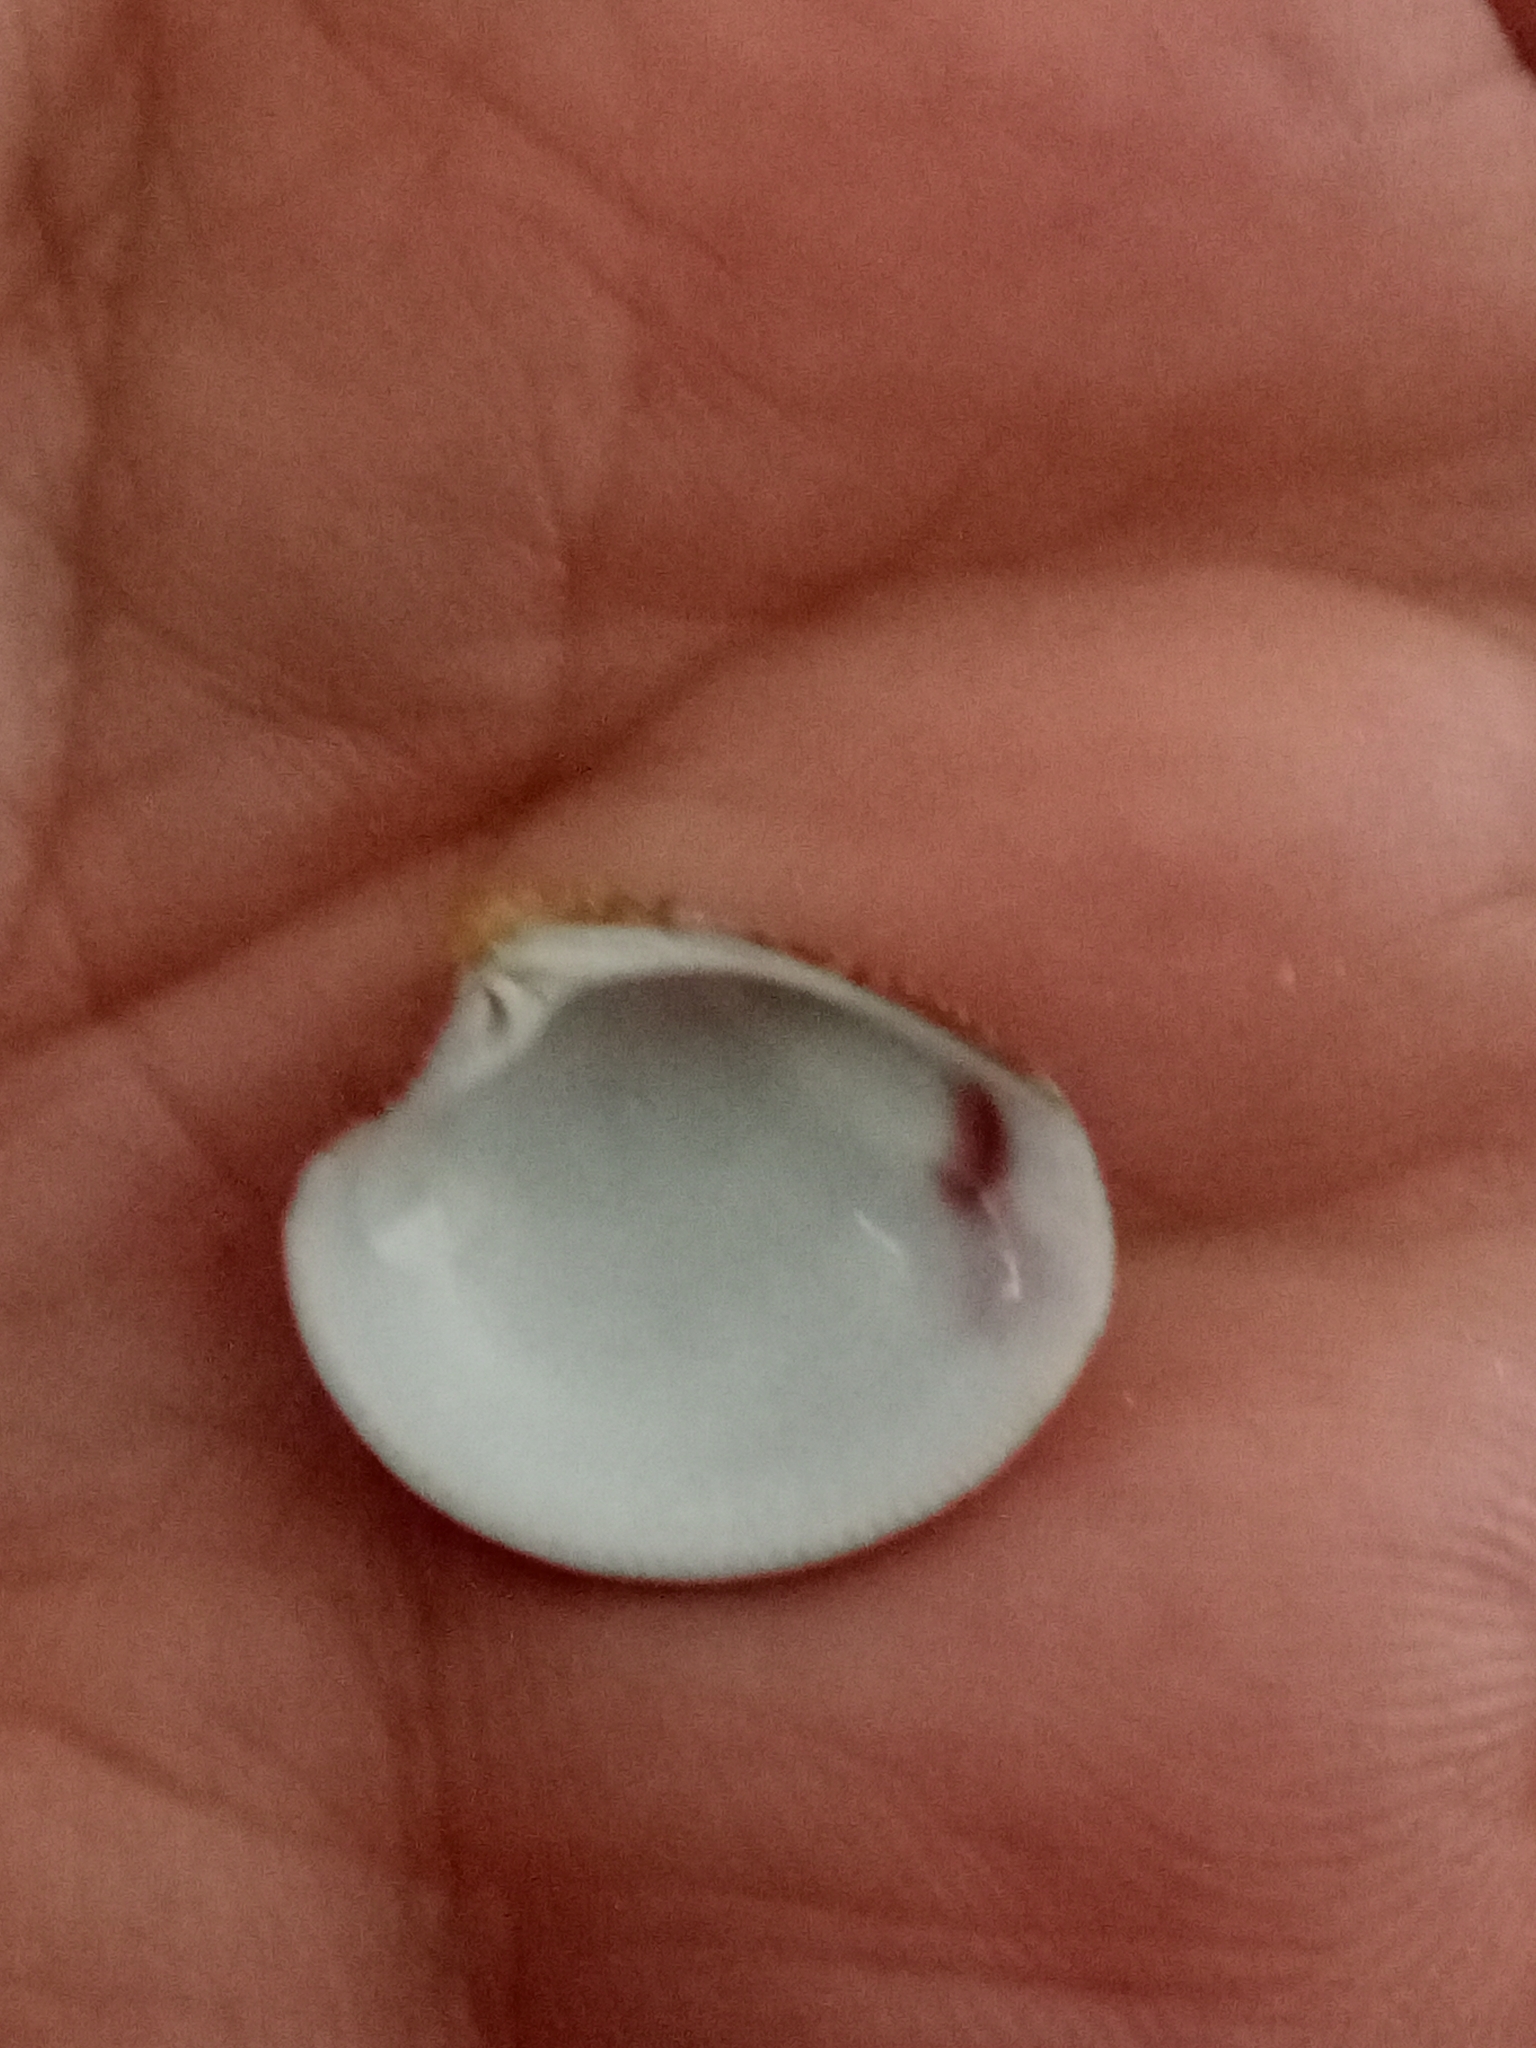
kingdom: Animalia
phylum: Mollusca
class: Bivalvia
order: Venerida
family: Veneridae
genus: Chamelea
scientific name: Chamelea gallina
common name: Chicken venus
